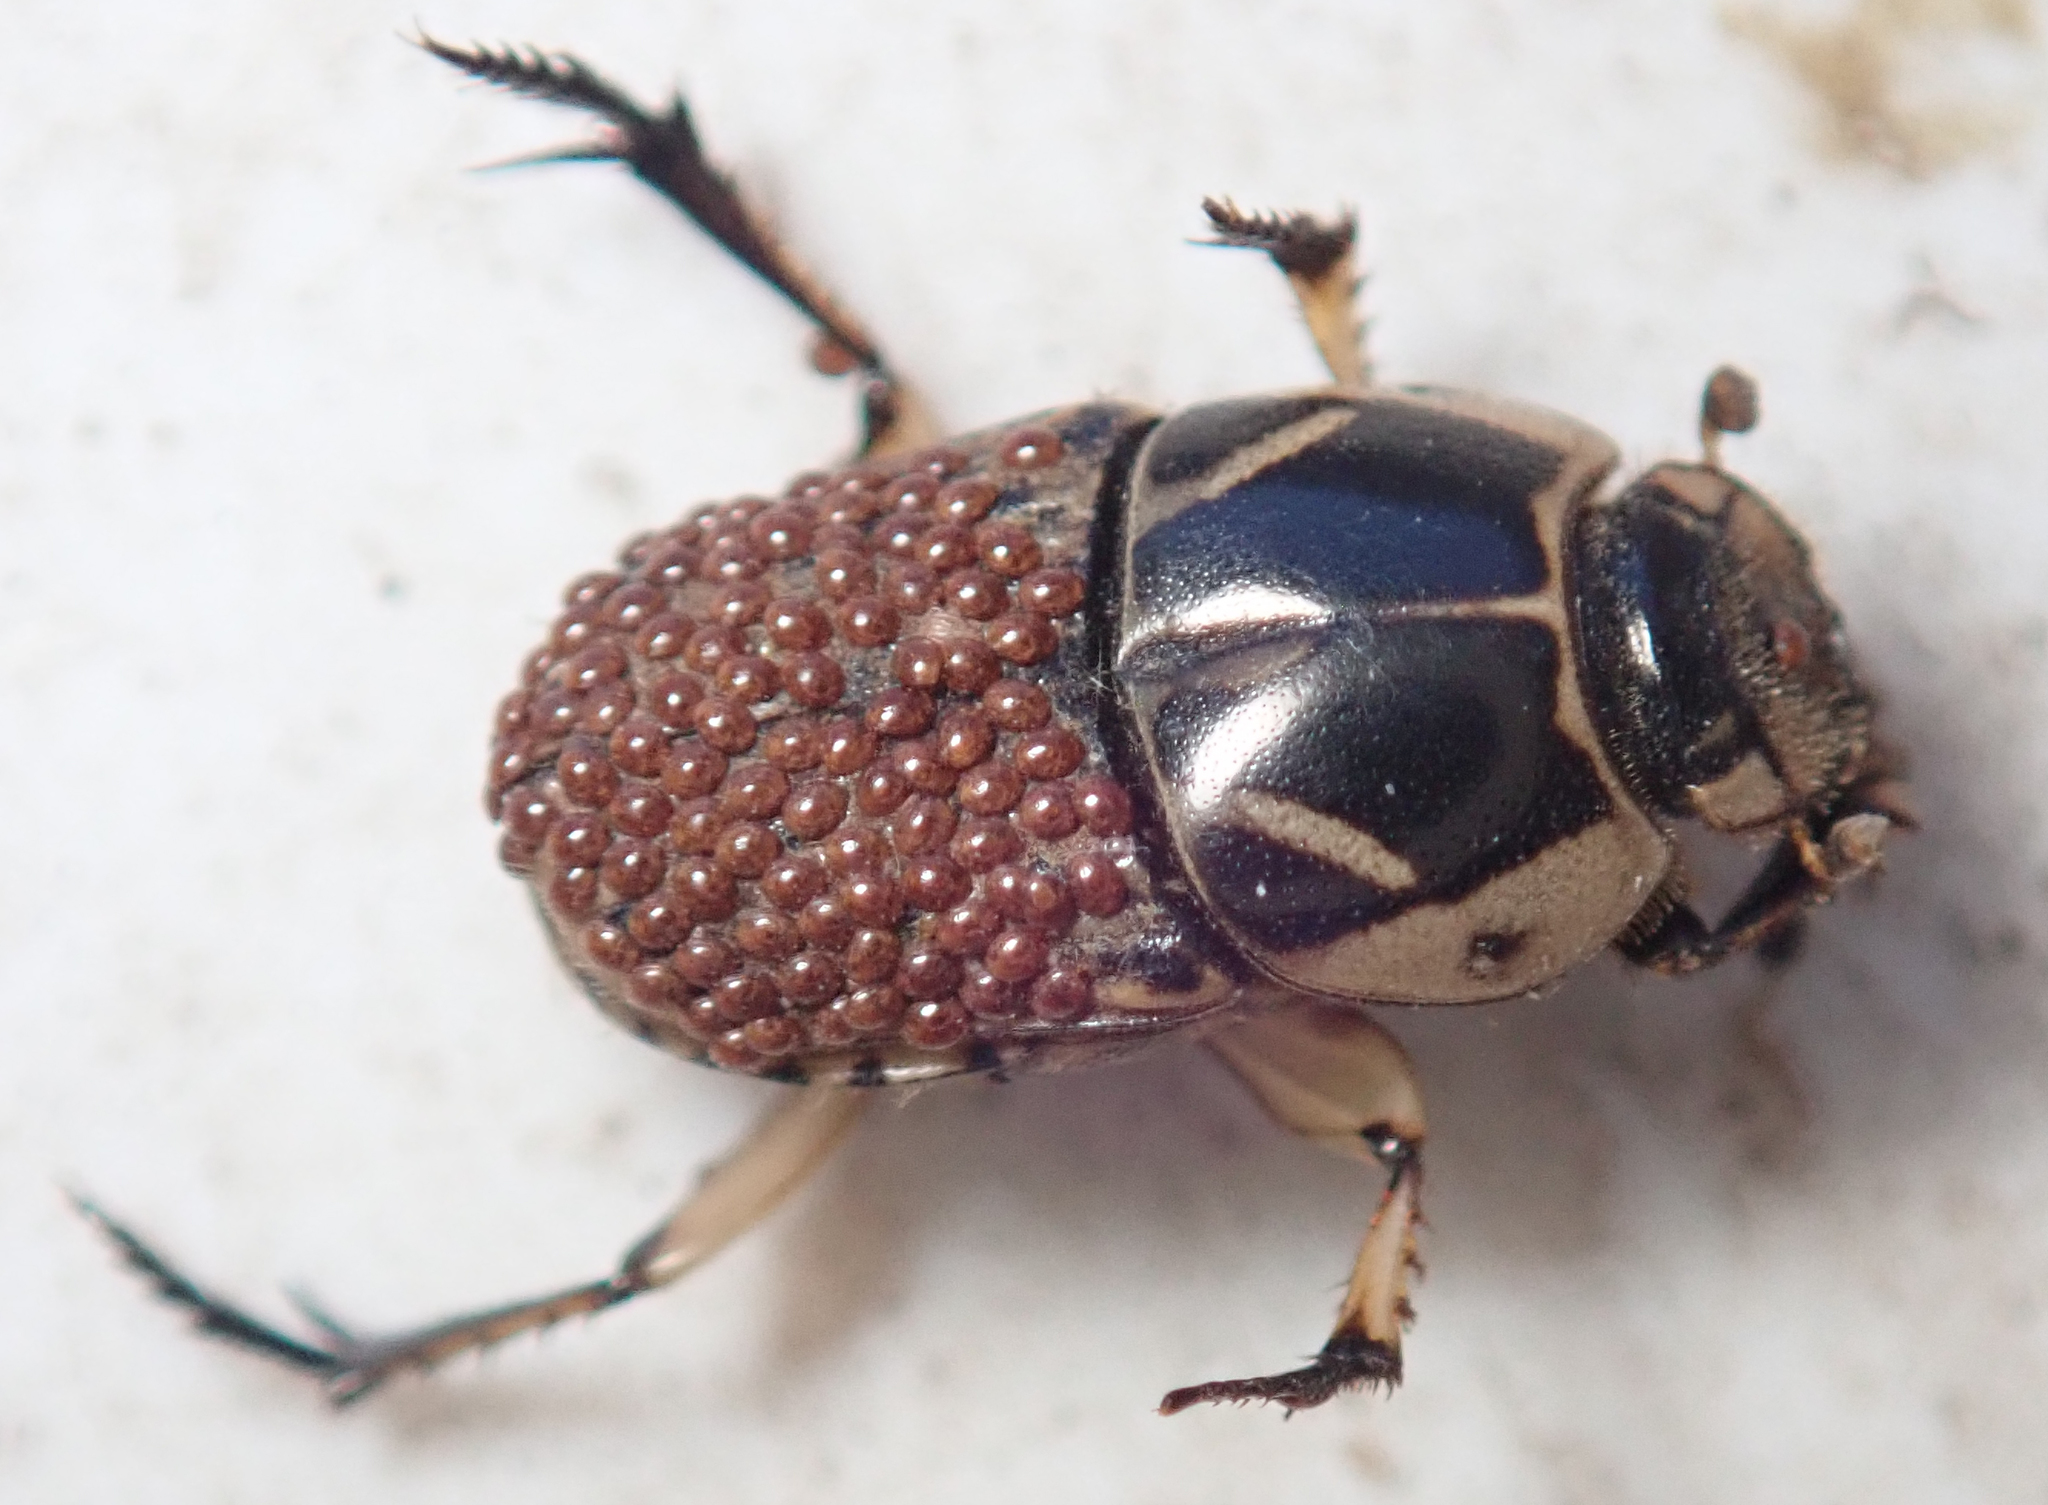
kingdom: Animalia
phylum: Arthropoda
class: Insecta
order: Coleoptera
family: Scarabaeidae
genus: Oniticellus
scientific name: Oniticellus pictus
